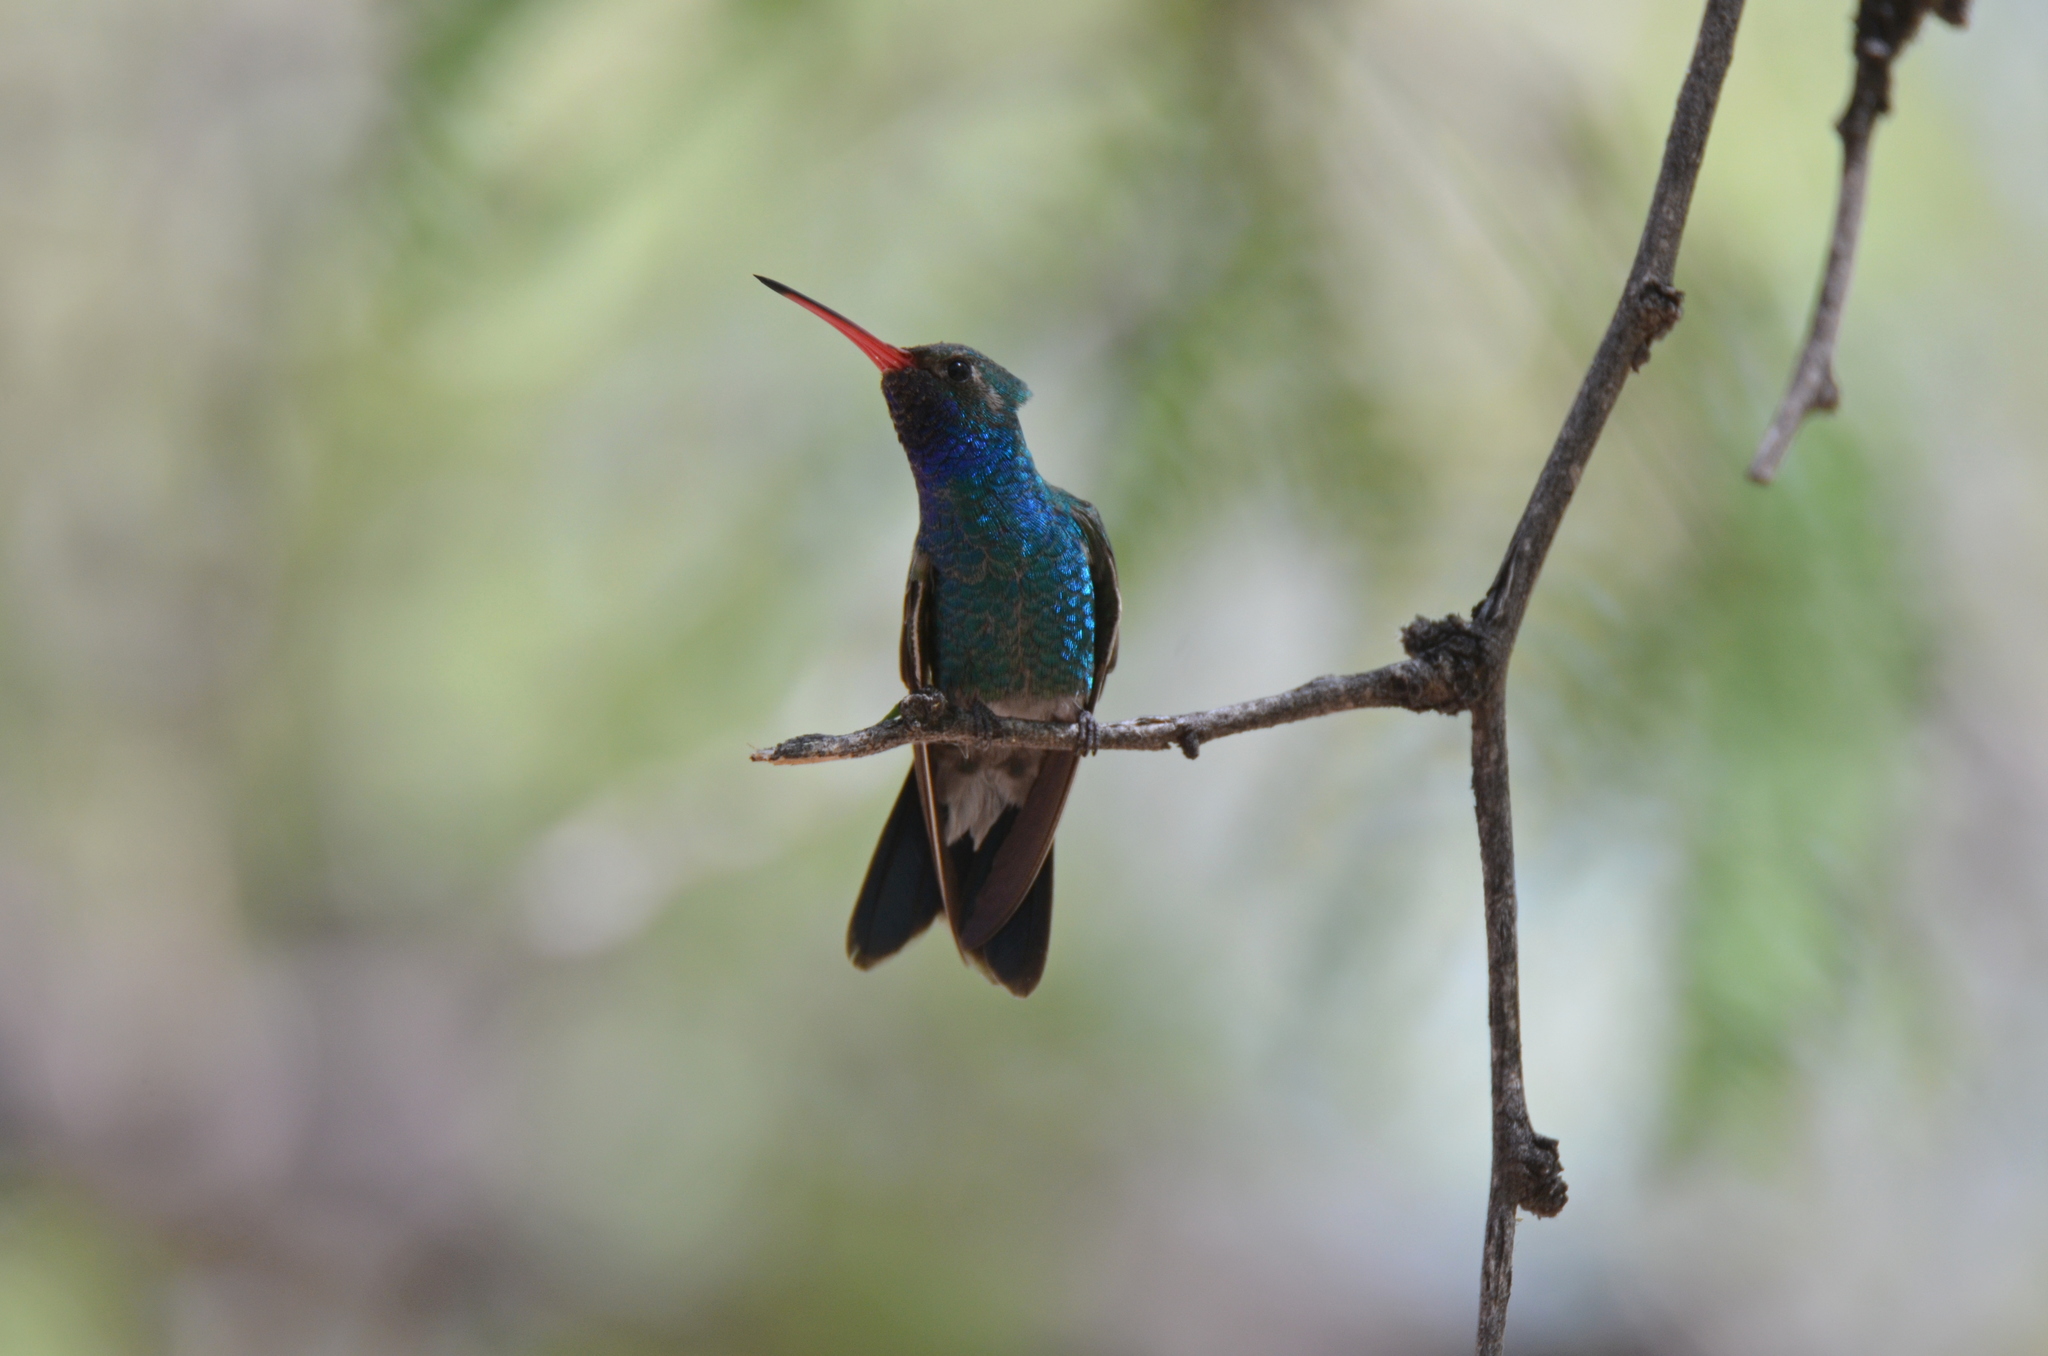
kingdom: Animalia
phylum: Chordata
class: Aves
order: Apodiformes
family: Trochilidae
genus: Cynanthus
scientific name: Cynanthus latirostris
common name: Broad-billed hummingbird
